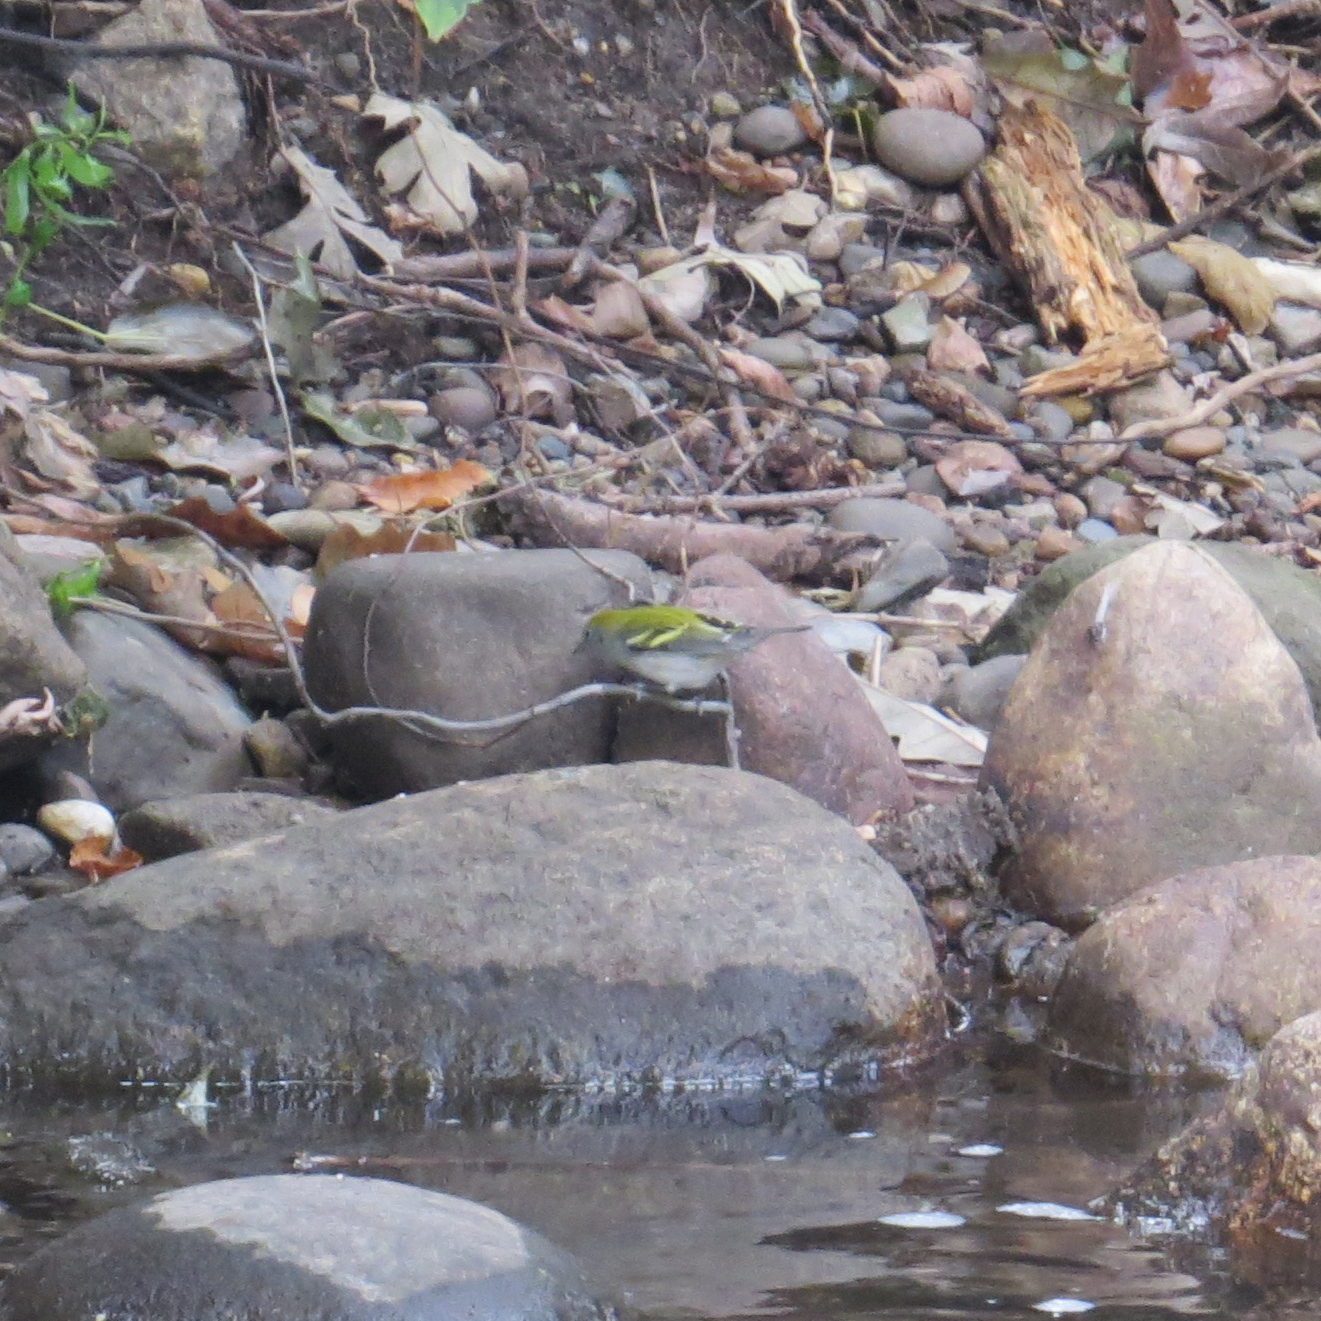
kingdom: Animalia
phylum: Chordata
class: Aves
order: Passeriformes
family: Parulidae
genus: Setophaga
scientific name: Setophaga pensylvanica
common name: Chestnut-sided warbler
